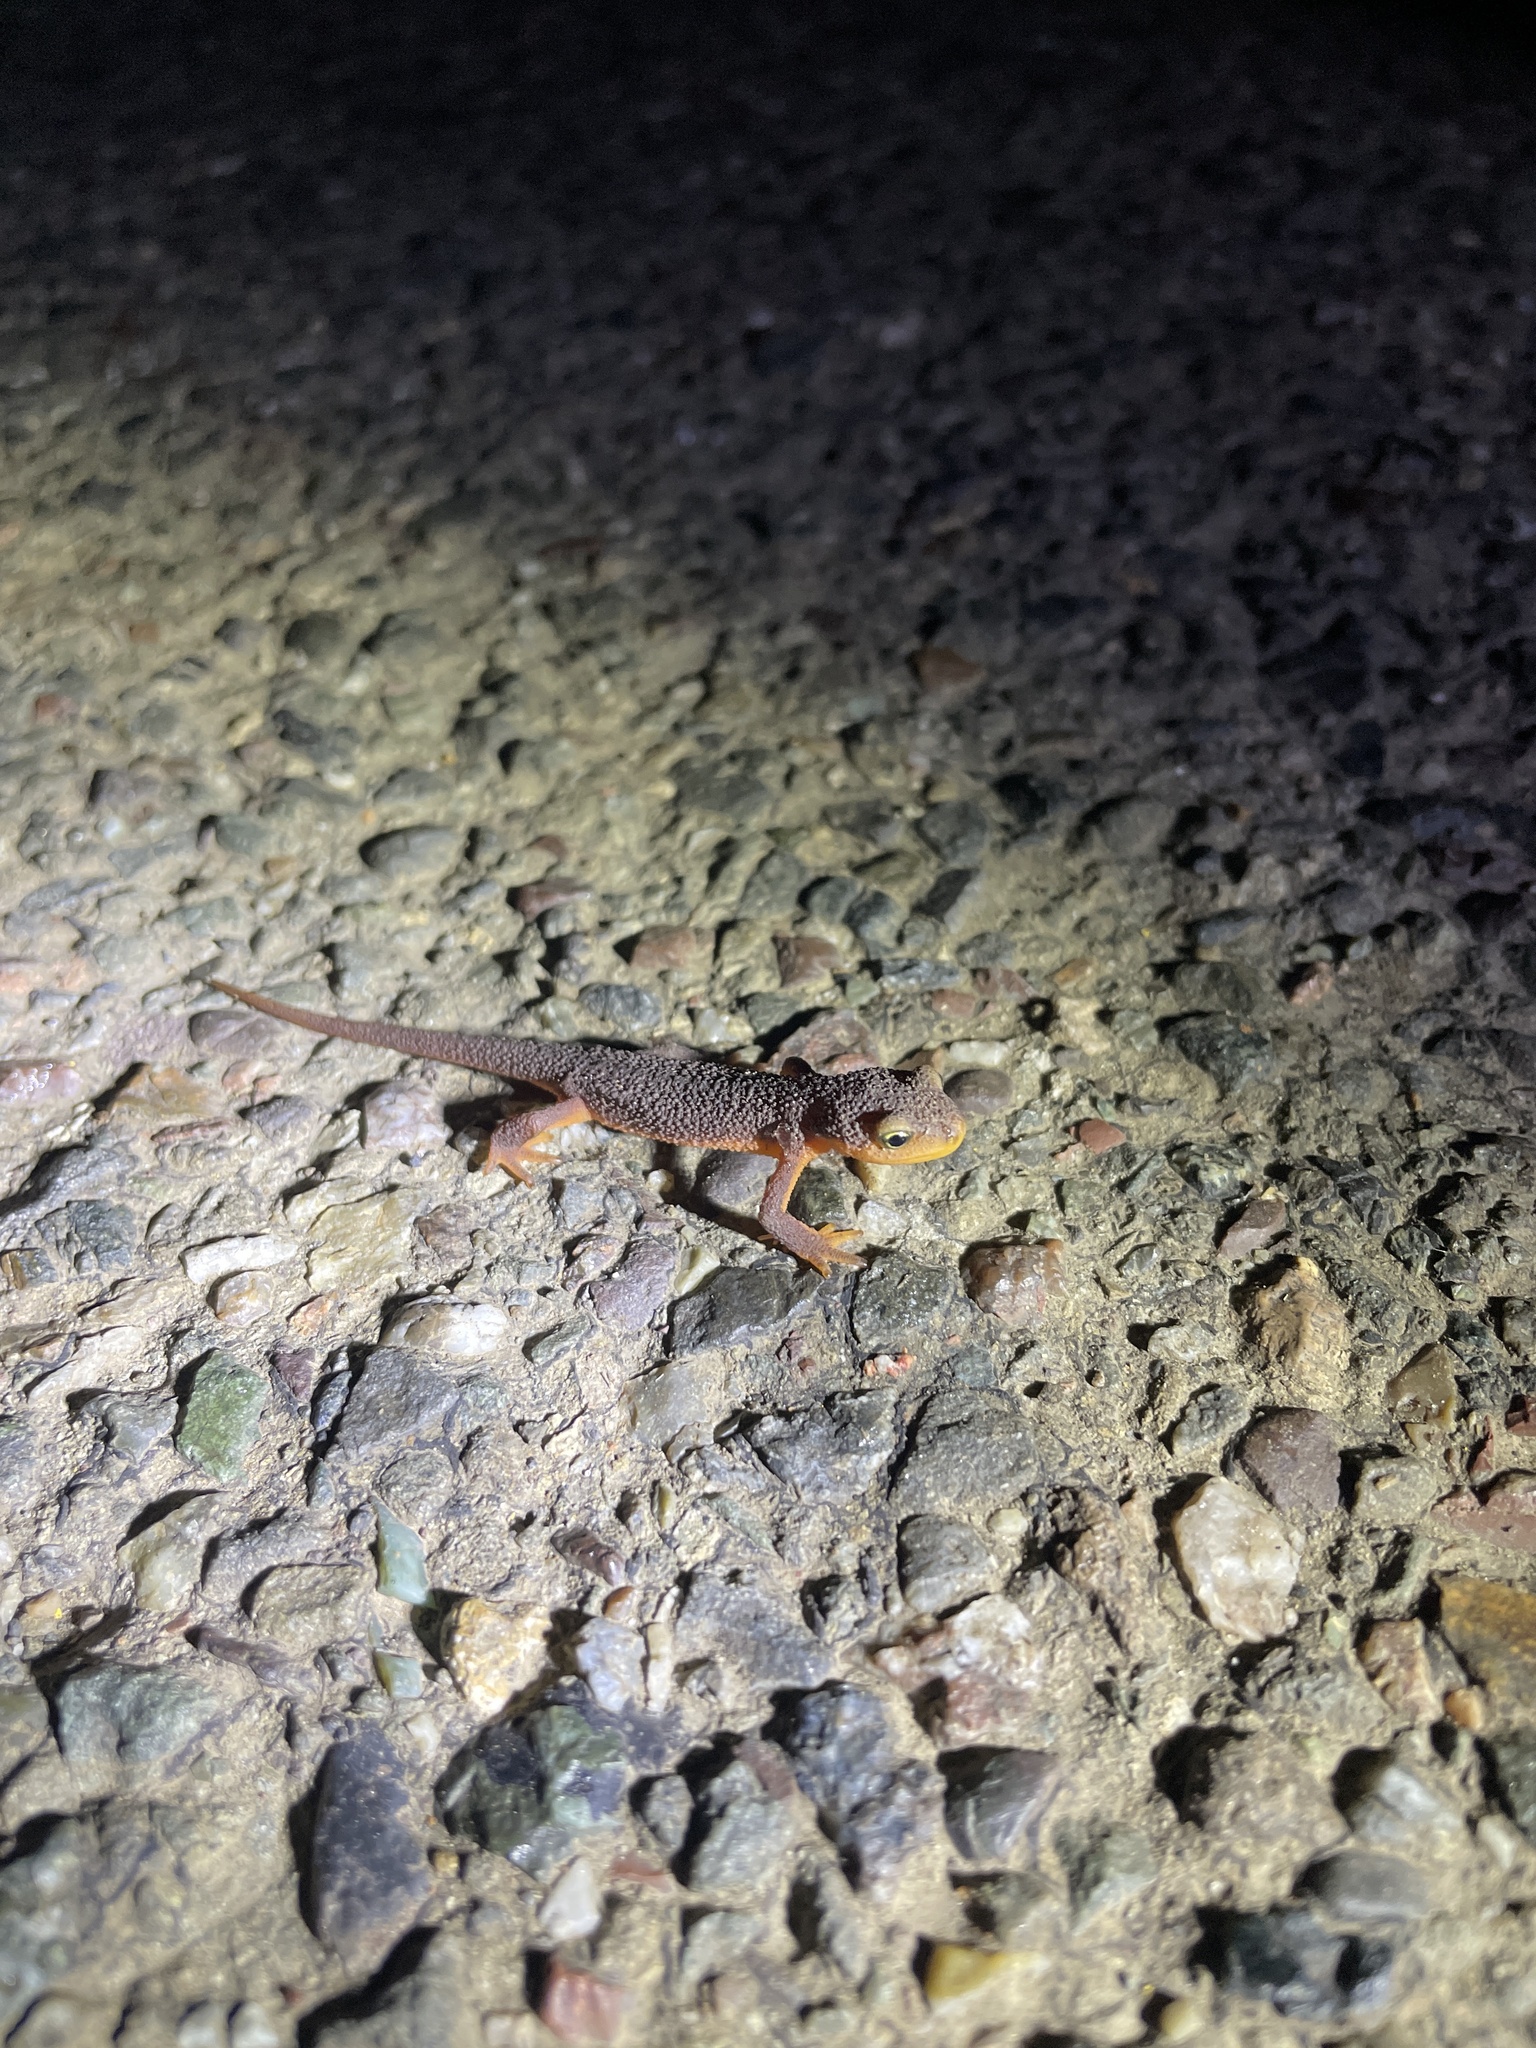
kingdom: Animalia
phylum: Chordata
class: Amphibia
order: Caudata
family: Salamandridae
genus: Taricha
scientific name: Taricha torosa
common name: California newt
